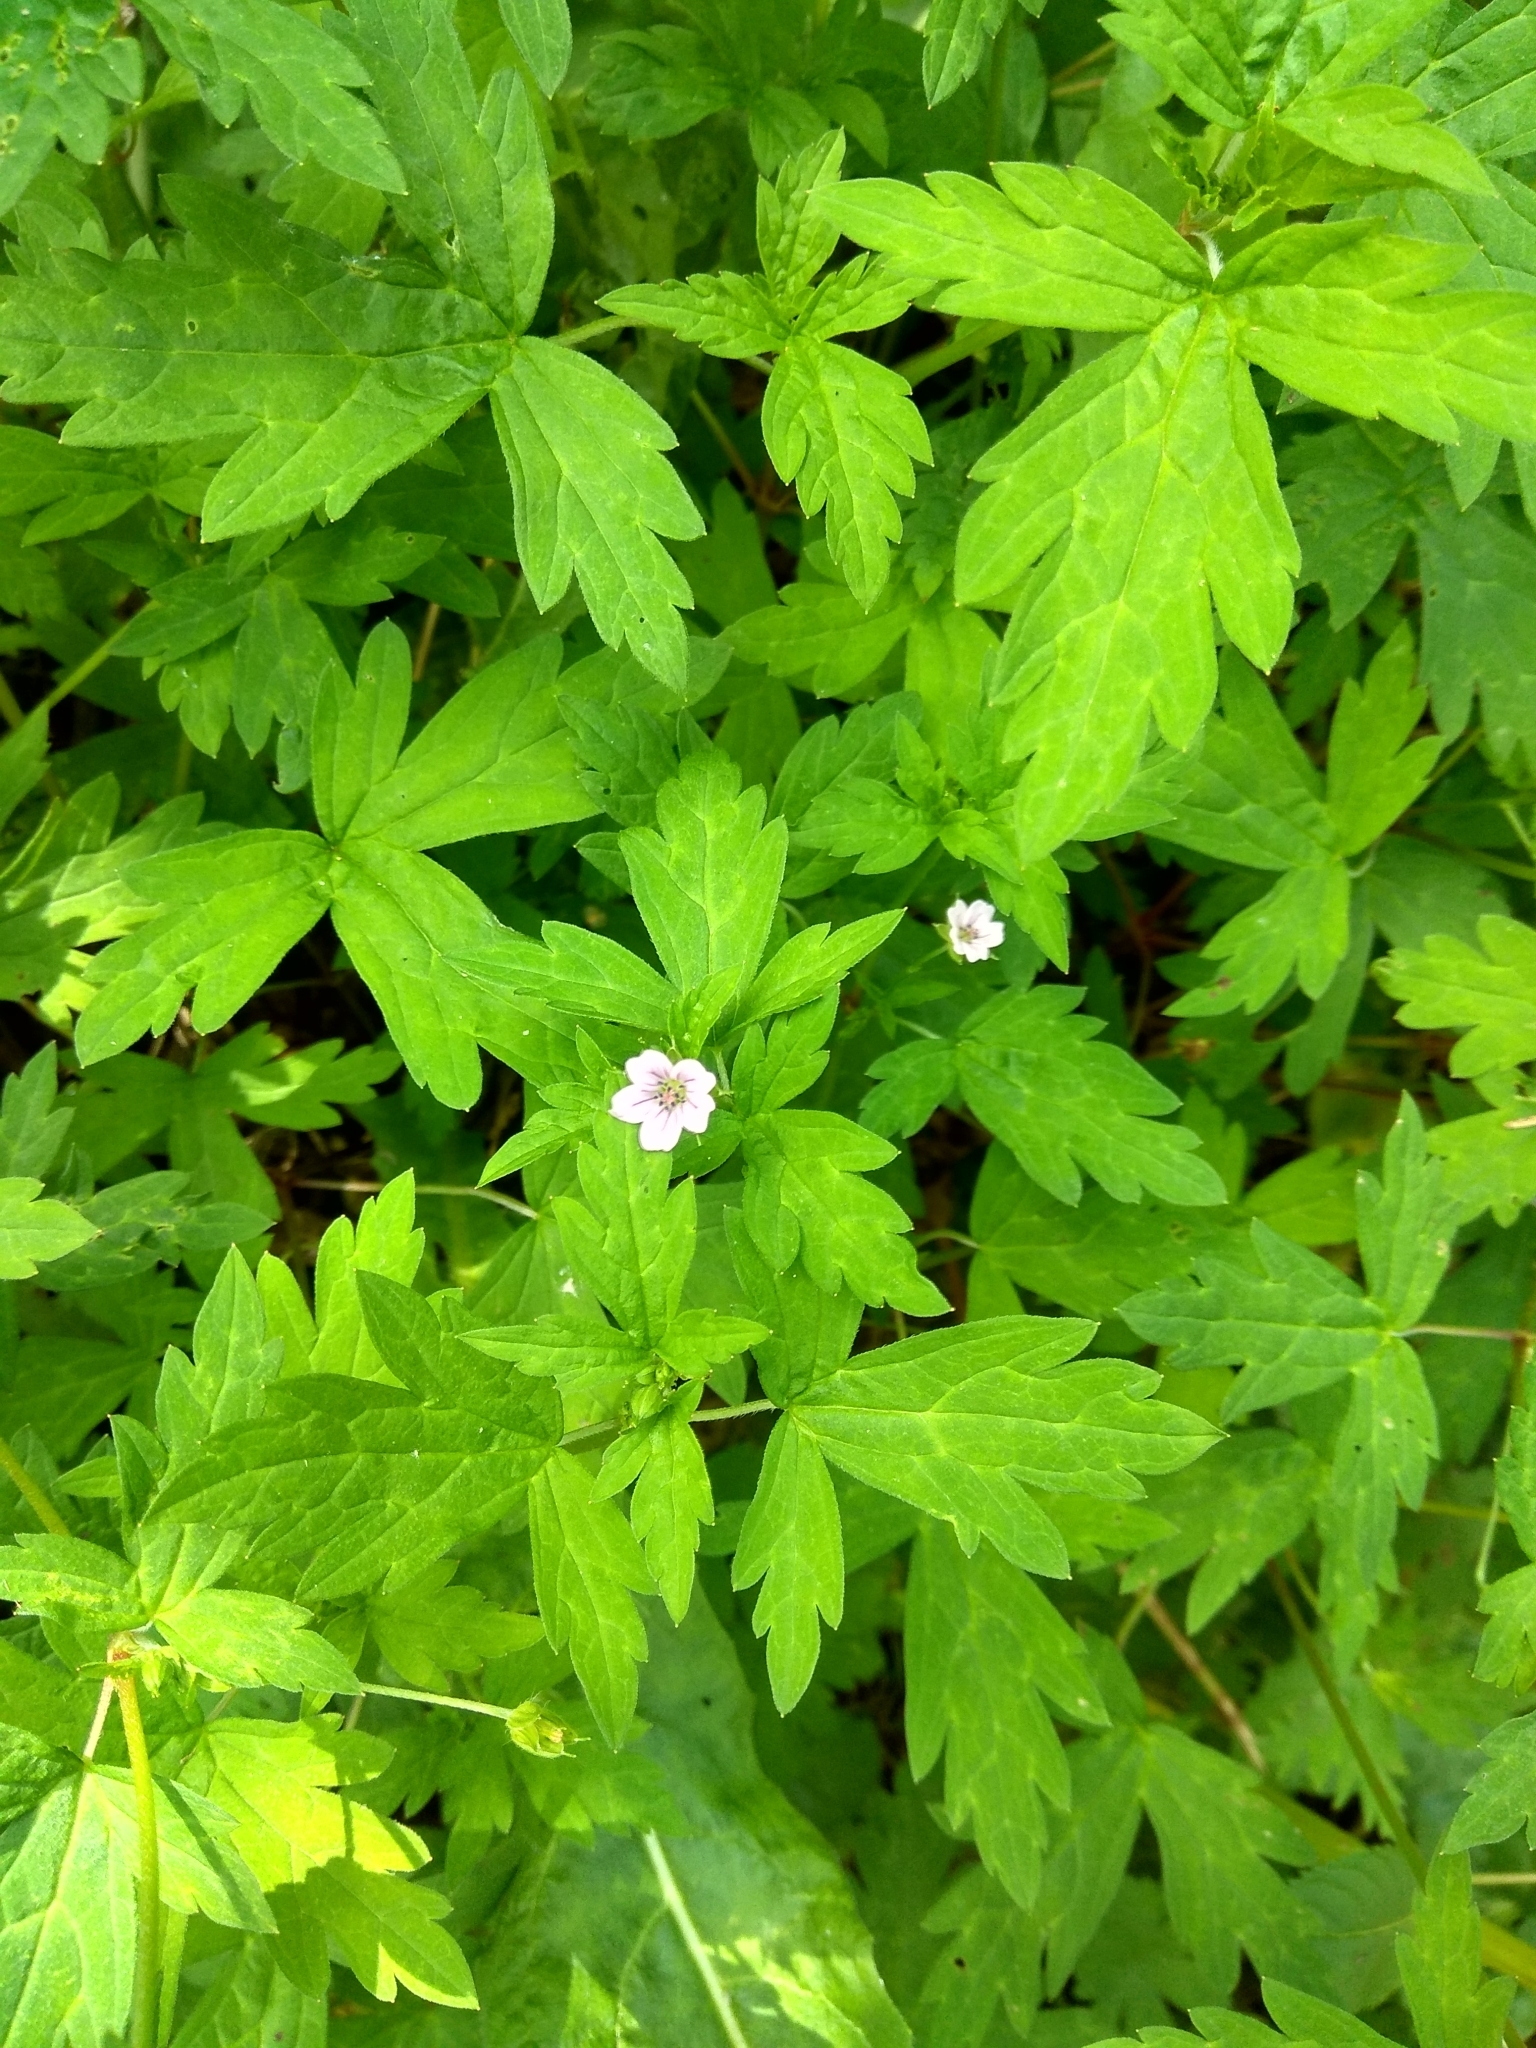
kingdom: Plantae
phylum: Tracheophyta
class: Magnoliopsida
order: Geraniales
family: Geraniaceae
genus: Geranium
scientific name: Geranium sibiricum
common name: Siberian crane's-bill
